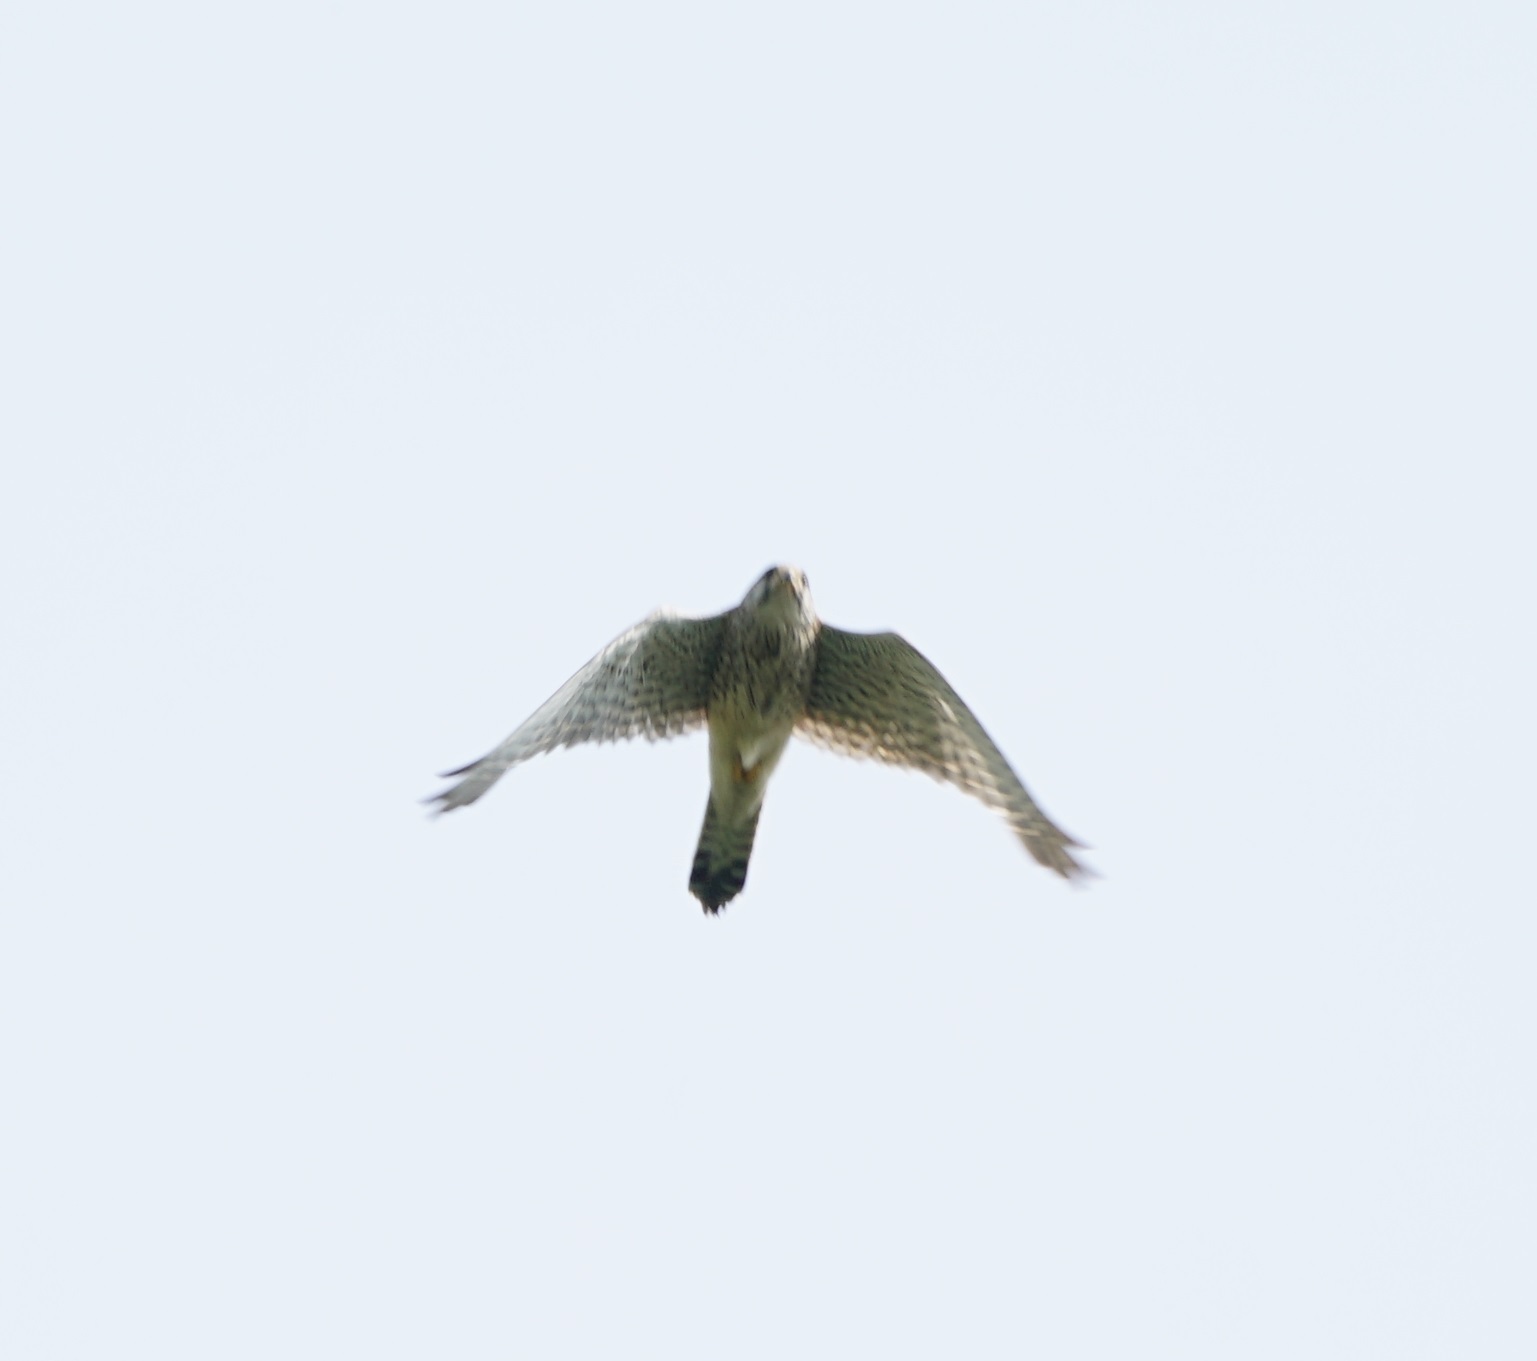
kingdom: Animalia
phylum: Chordata
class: Aves
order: Falconiformes
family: Falconidae
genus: Falco
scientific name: Falco tinnunculus
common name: Common kestrel
